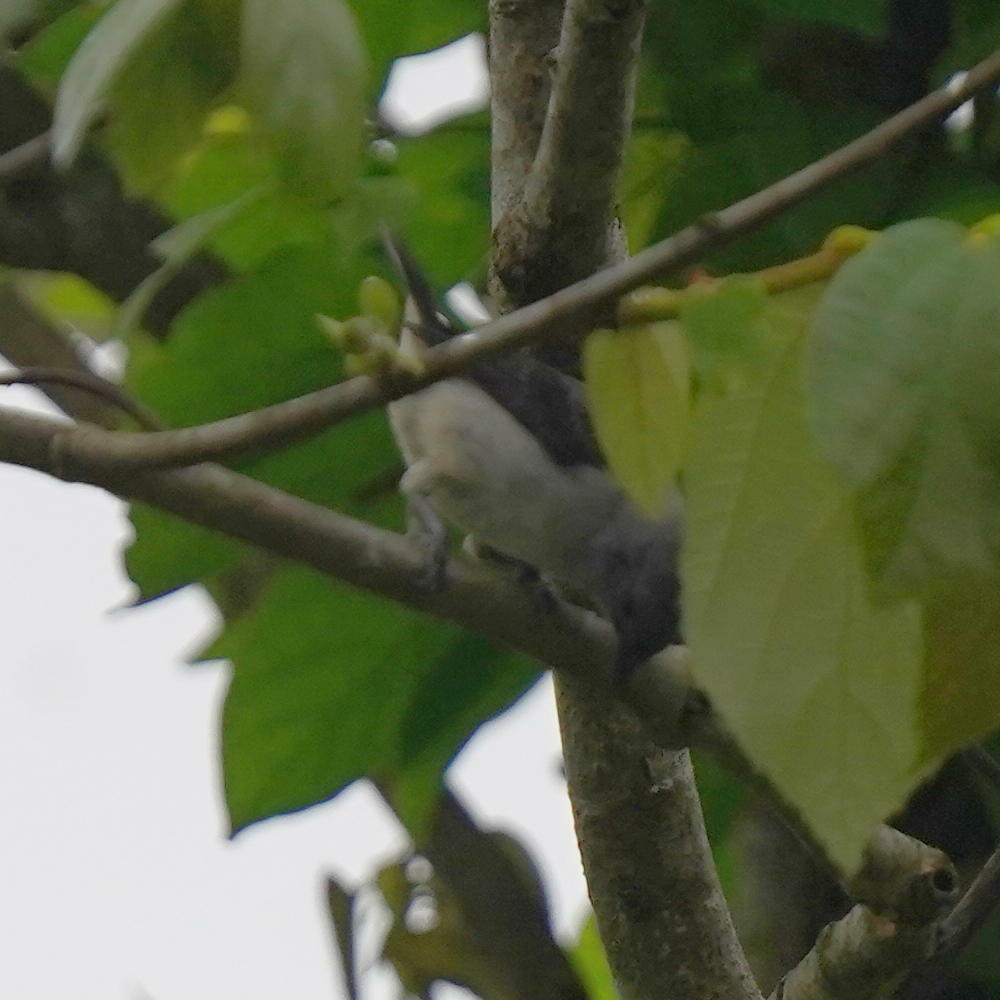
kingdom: Animalia
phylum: Chordata
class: Aves
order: Passeriformes
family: Thraupidae
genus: Tangara
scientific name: Tangara inornata
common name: Plain-colored tanager
